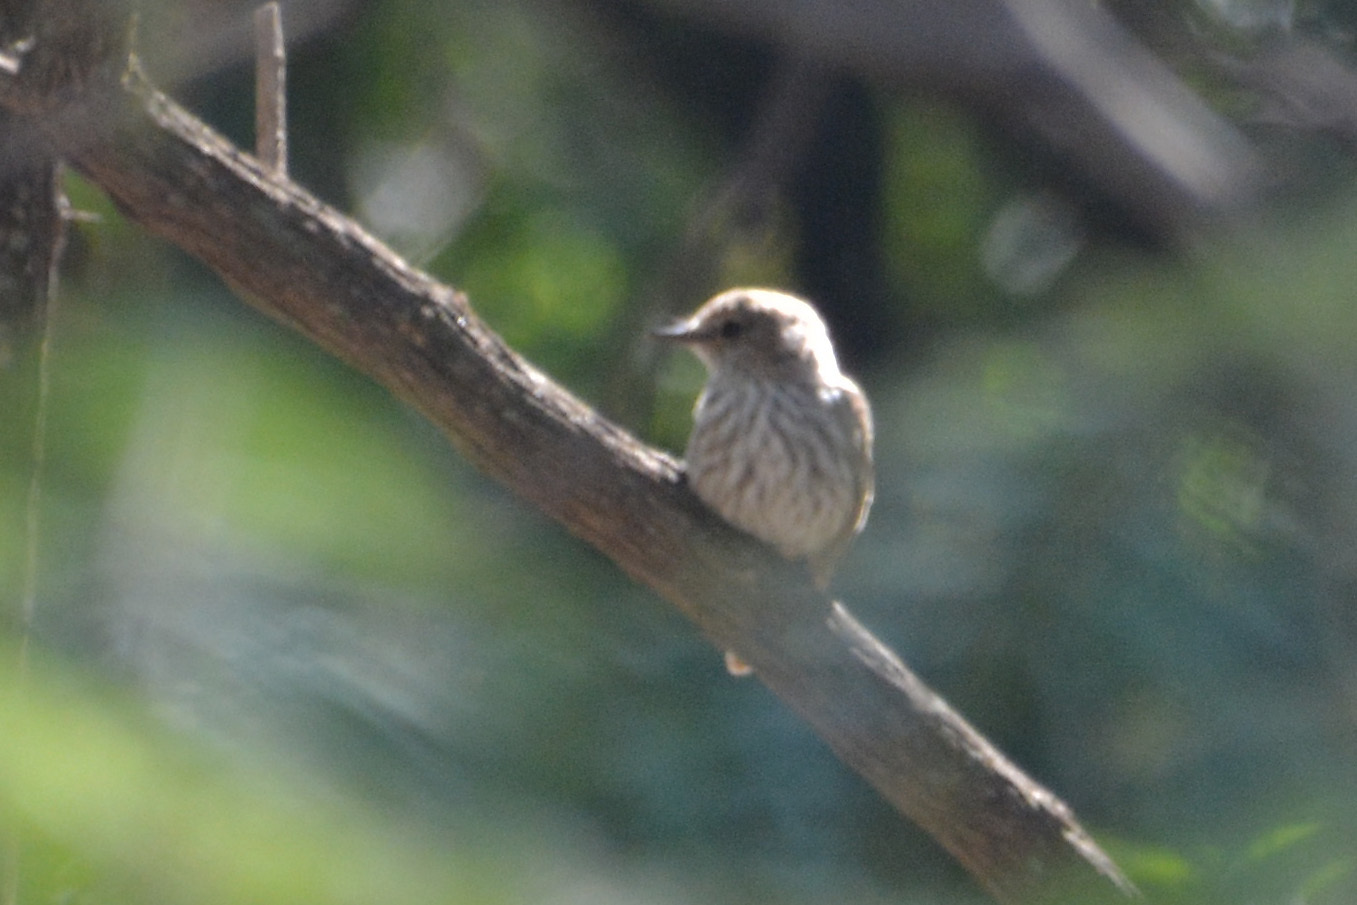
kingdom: Animalia
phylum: Chordata
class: Aves
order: Passeriformes
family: Tyrannidae
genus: Pyrocephalus
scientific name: Pyrocephalus rubinus
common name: Vermilion flycatcher
